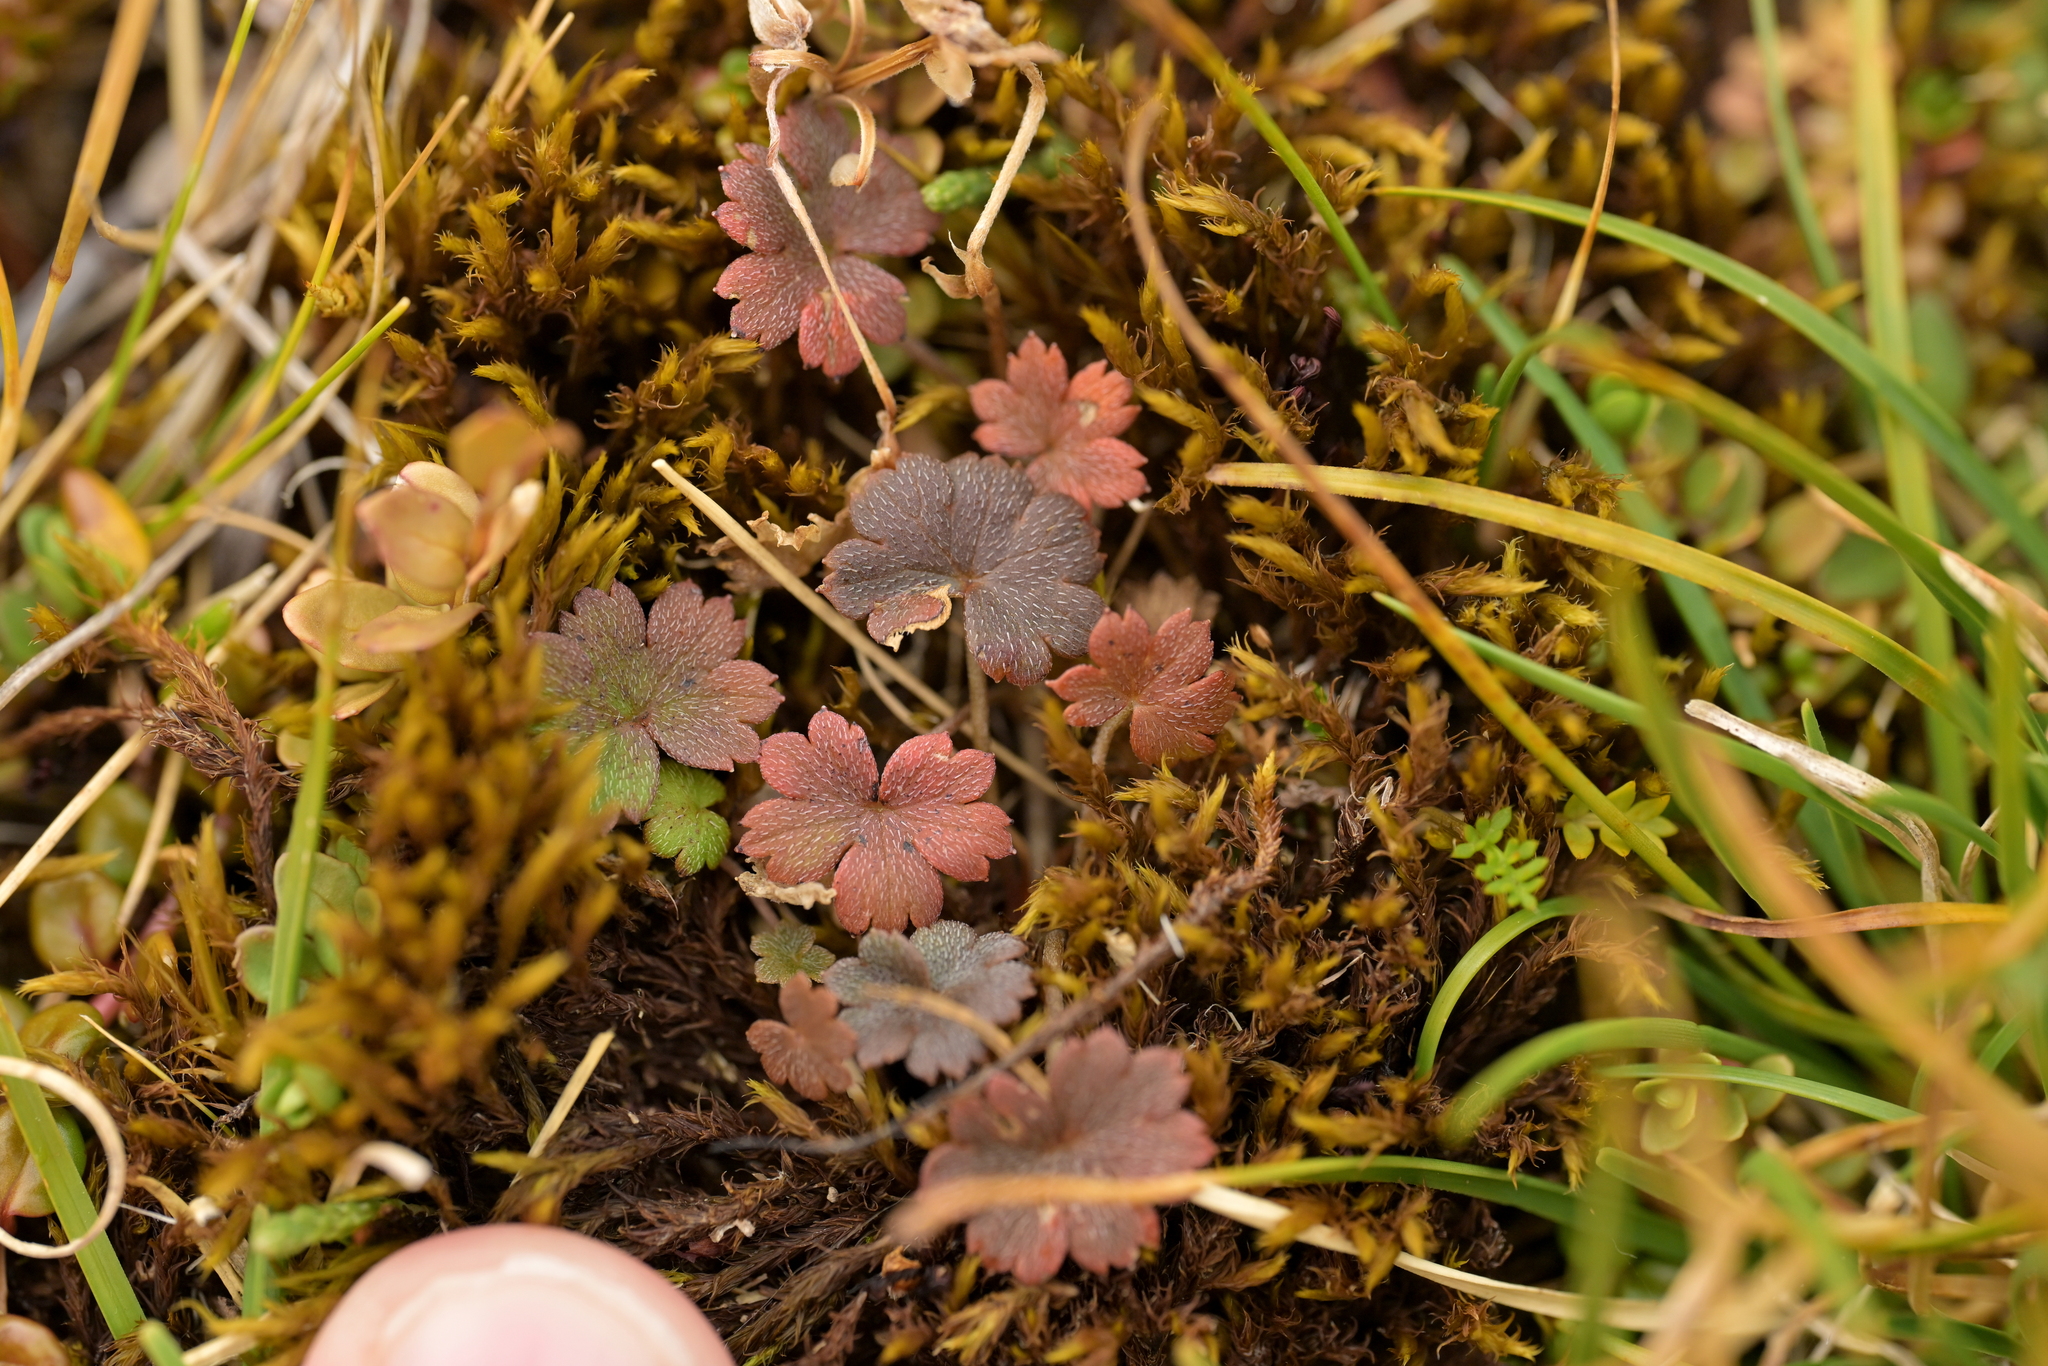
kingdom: Plantae
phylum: Tracheophyta
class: Magnoliopsida
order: Geraniales
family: Geraniaceae
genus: Geranium
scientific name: Geranium brevicaule
